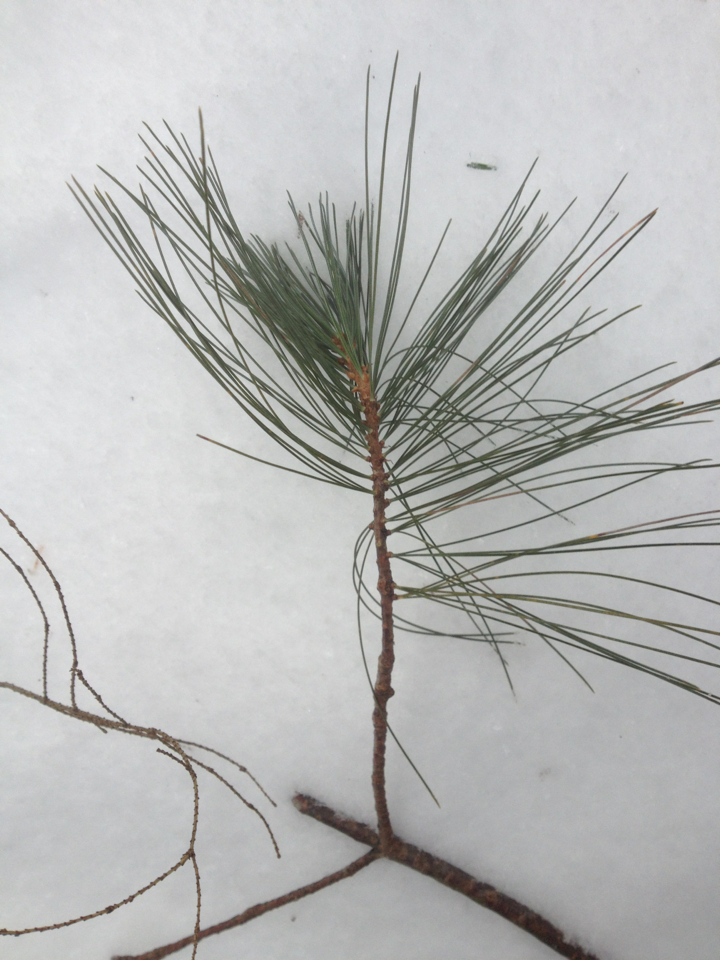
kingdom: Plantae
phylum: Tracheophyta
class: Pinopsida
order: Pinales
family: Pinaceae
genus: Pinus
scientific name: Pinus strobus
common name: Weymouth pine
